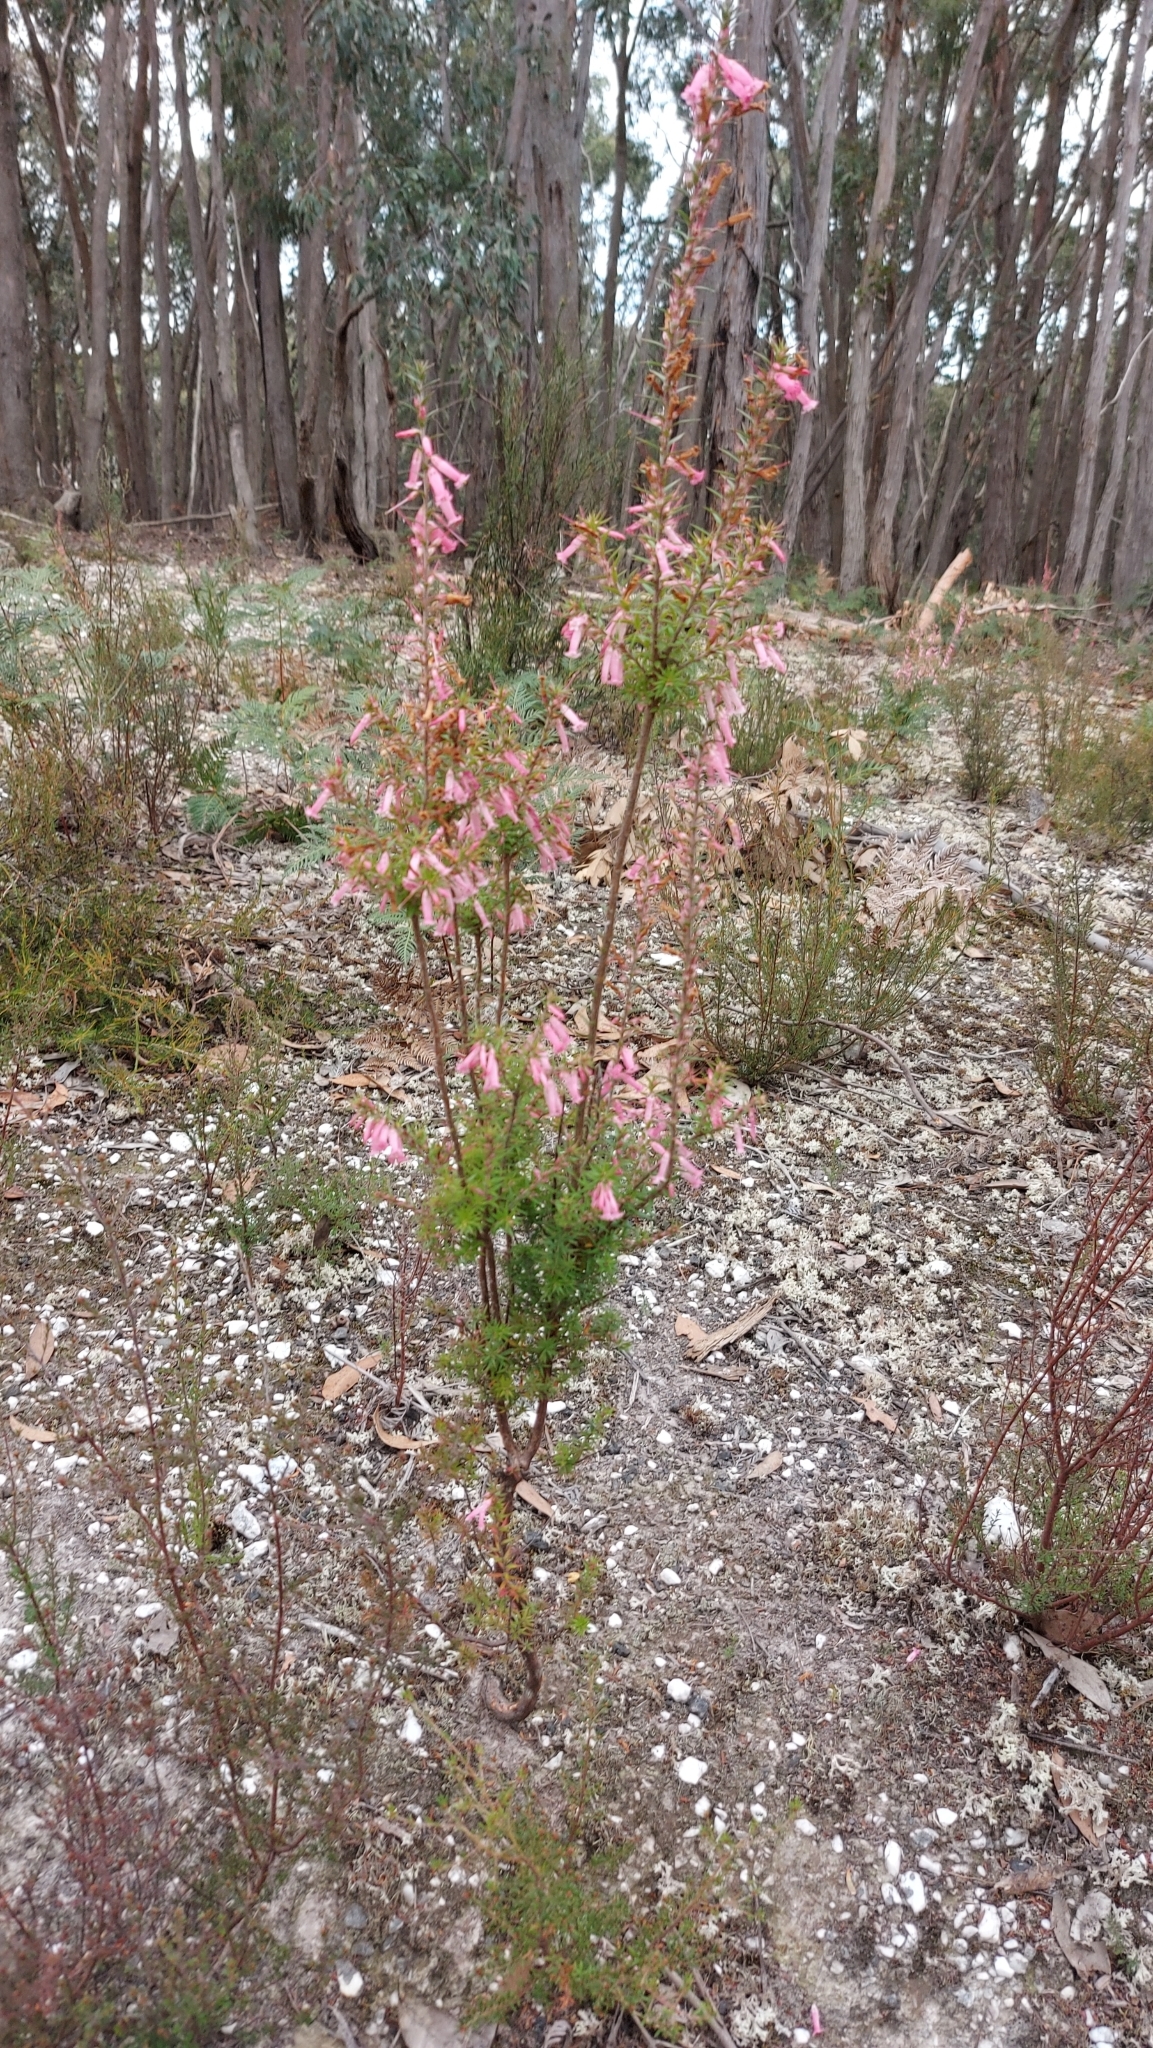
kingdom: Plantae
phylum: Tracheophyta
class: Magnoliopsida
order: Ericales
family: Ericaceae
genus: Epacris
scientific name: Epacris impressa
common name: Common-heath
